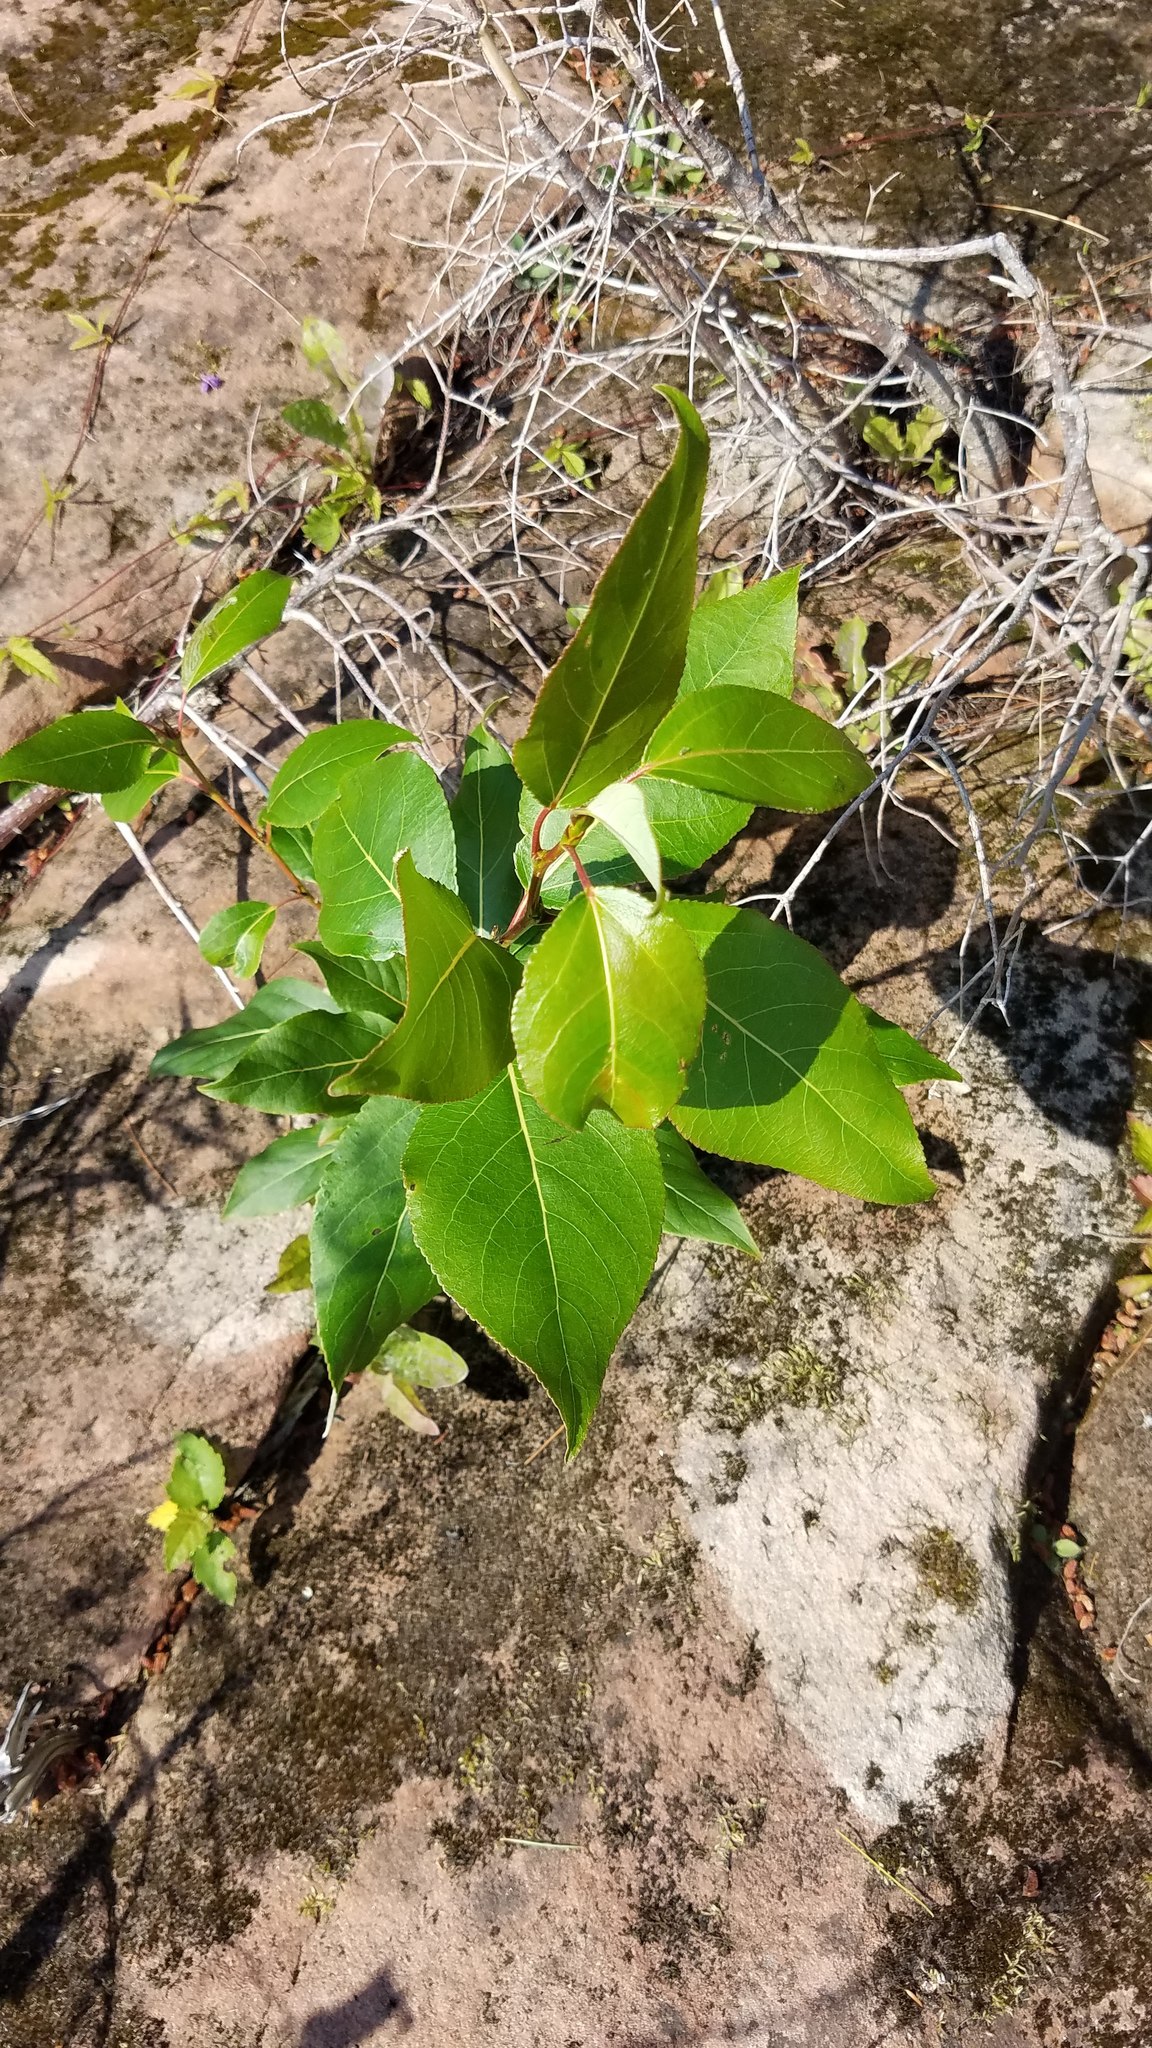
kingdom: Plantae
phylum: Tracheophyta
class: Magnoliopsida
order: Malpighiales
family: Salicaceae
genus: Populus
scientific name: Populus balsamifera
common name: Balsam poplar
